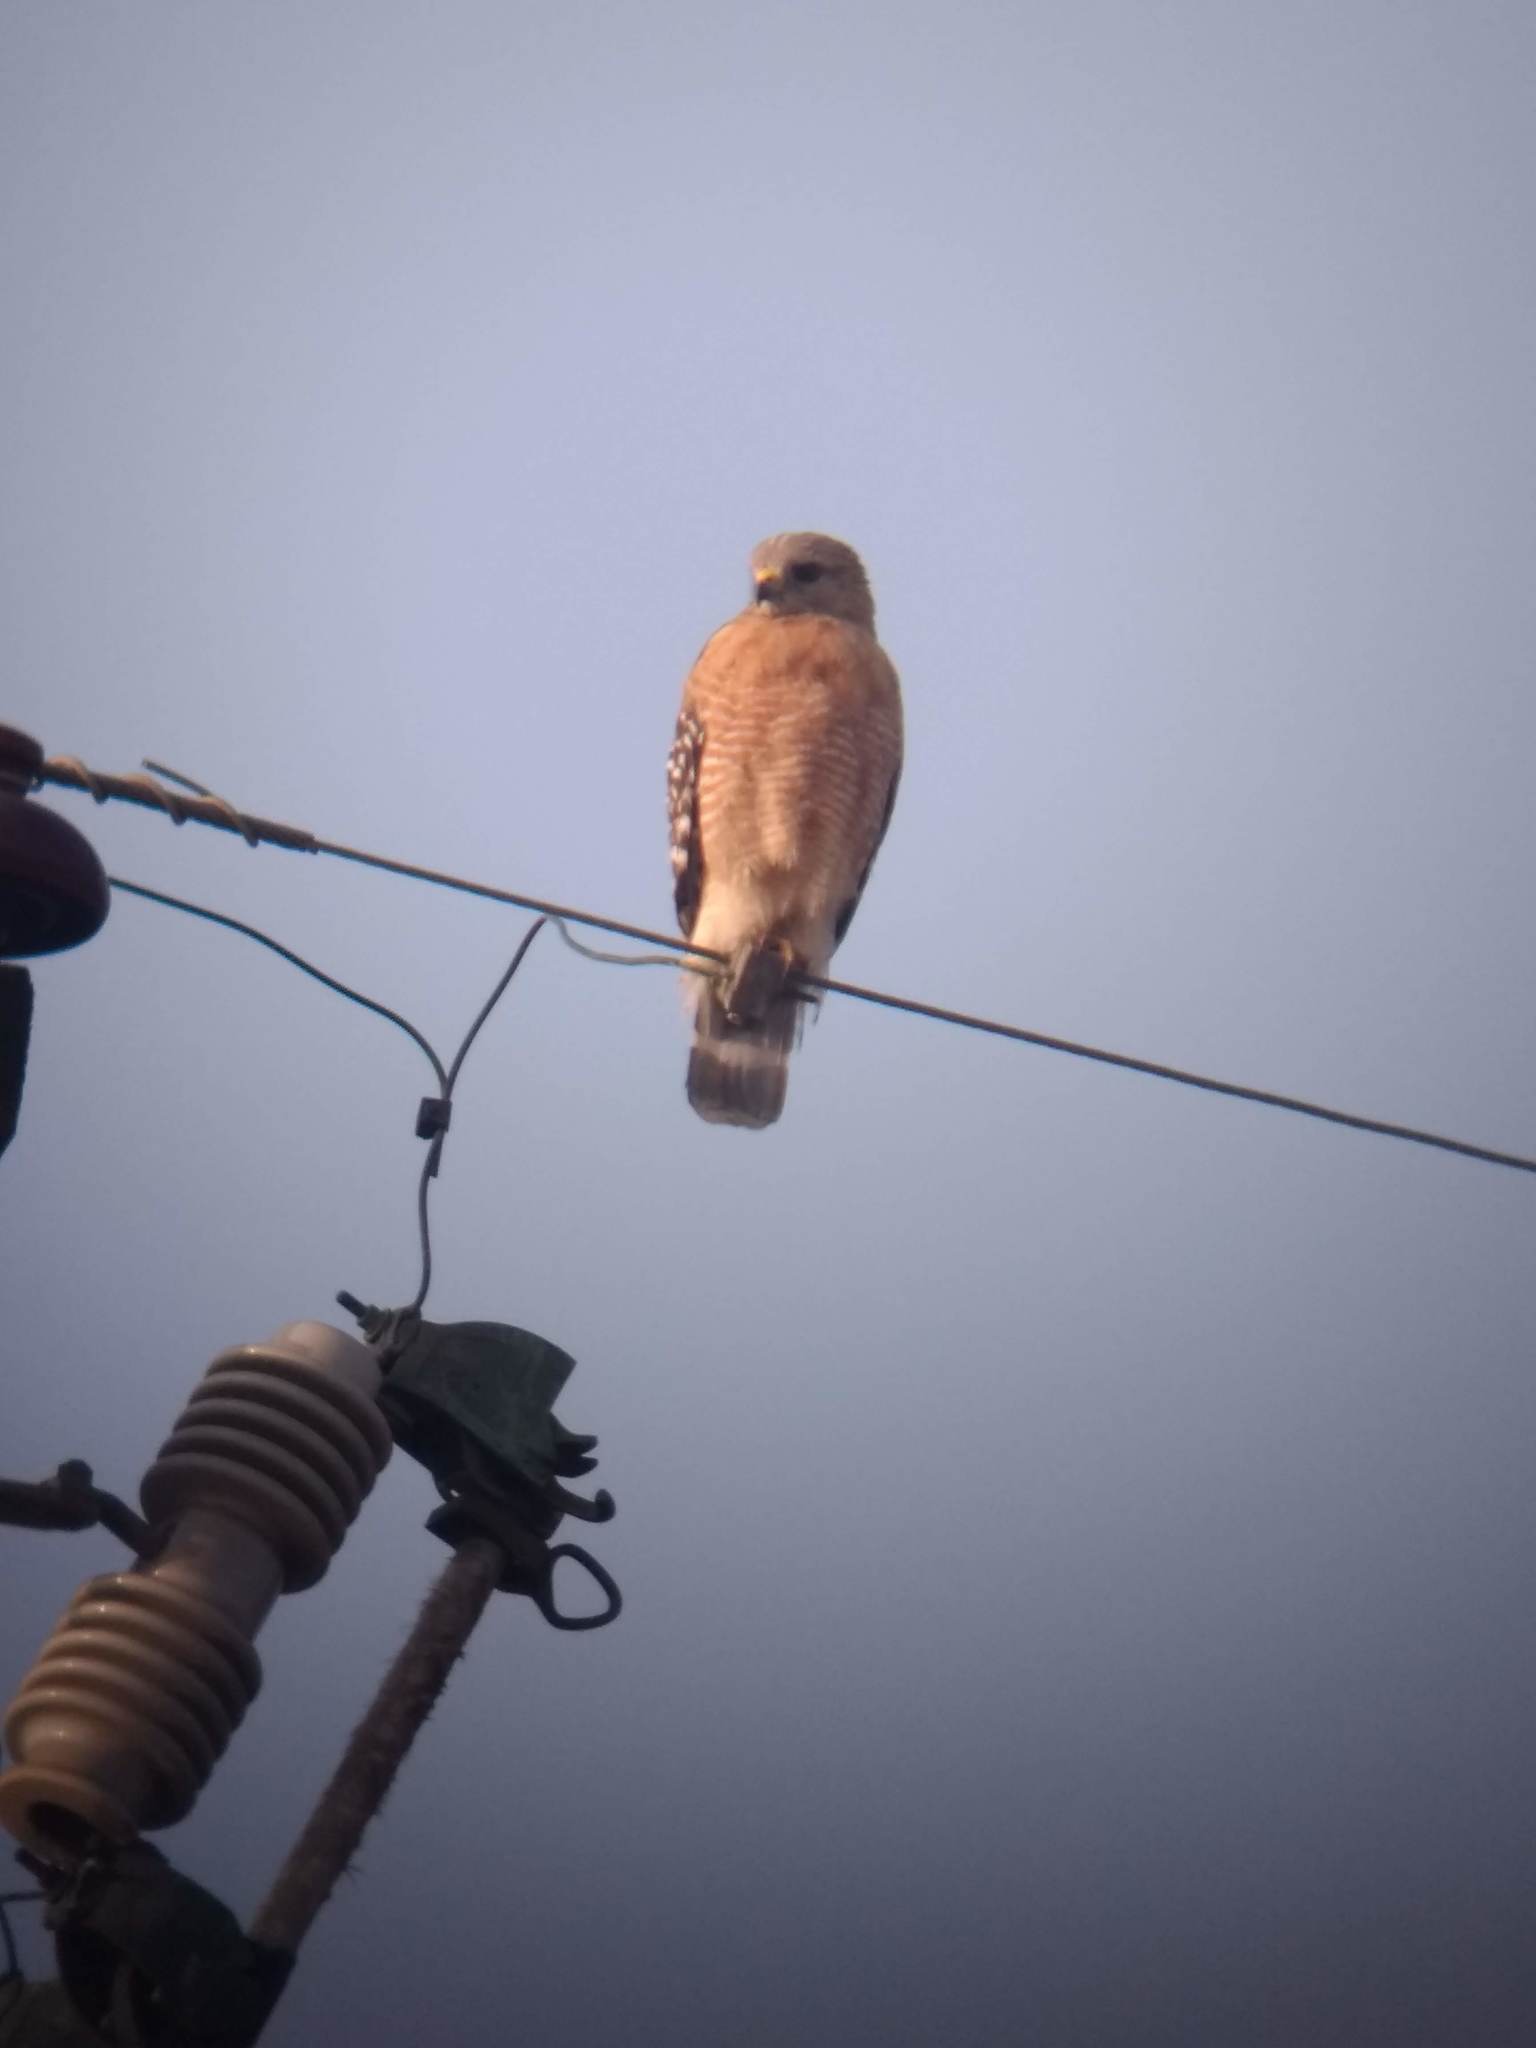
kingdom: Animalia
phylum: Chordata
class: Aves
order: Accipitriformes
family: Accipitridae
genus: Buteo
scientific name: Buteo lineatus
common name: Red-shouldered hawk
